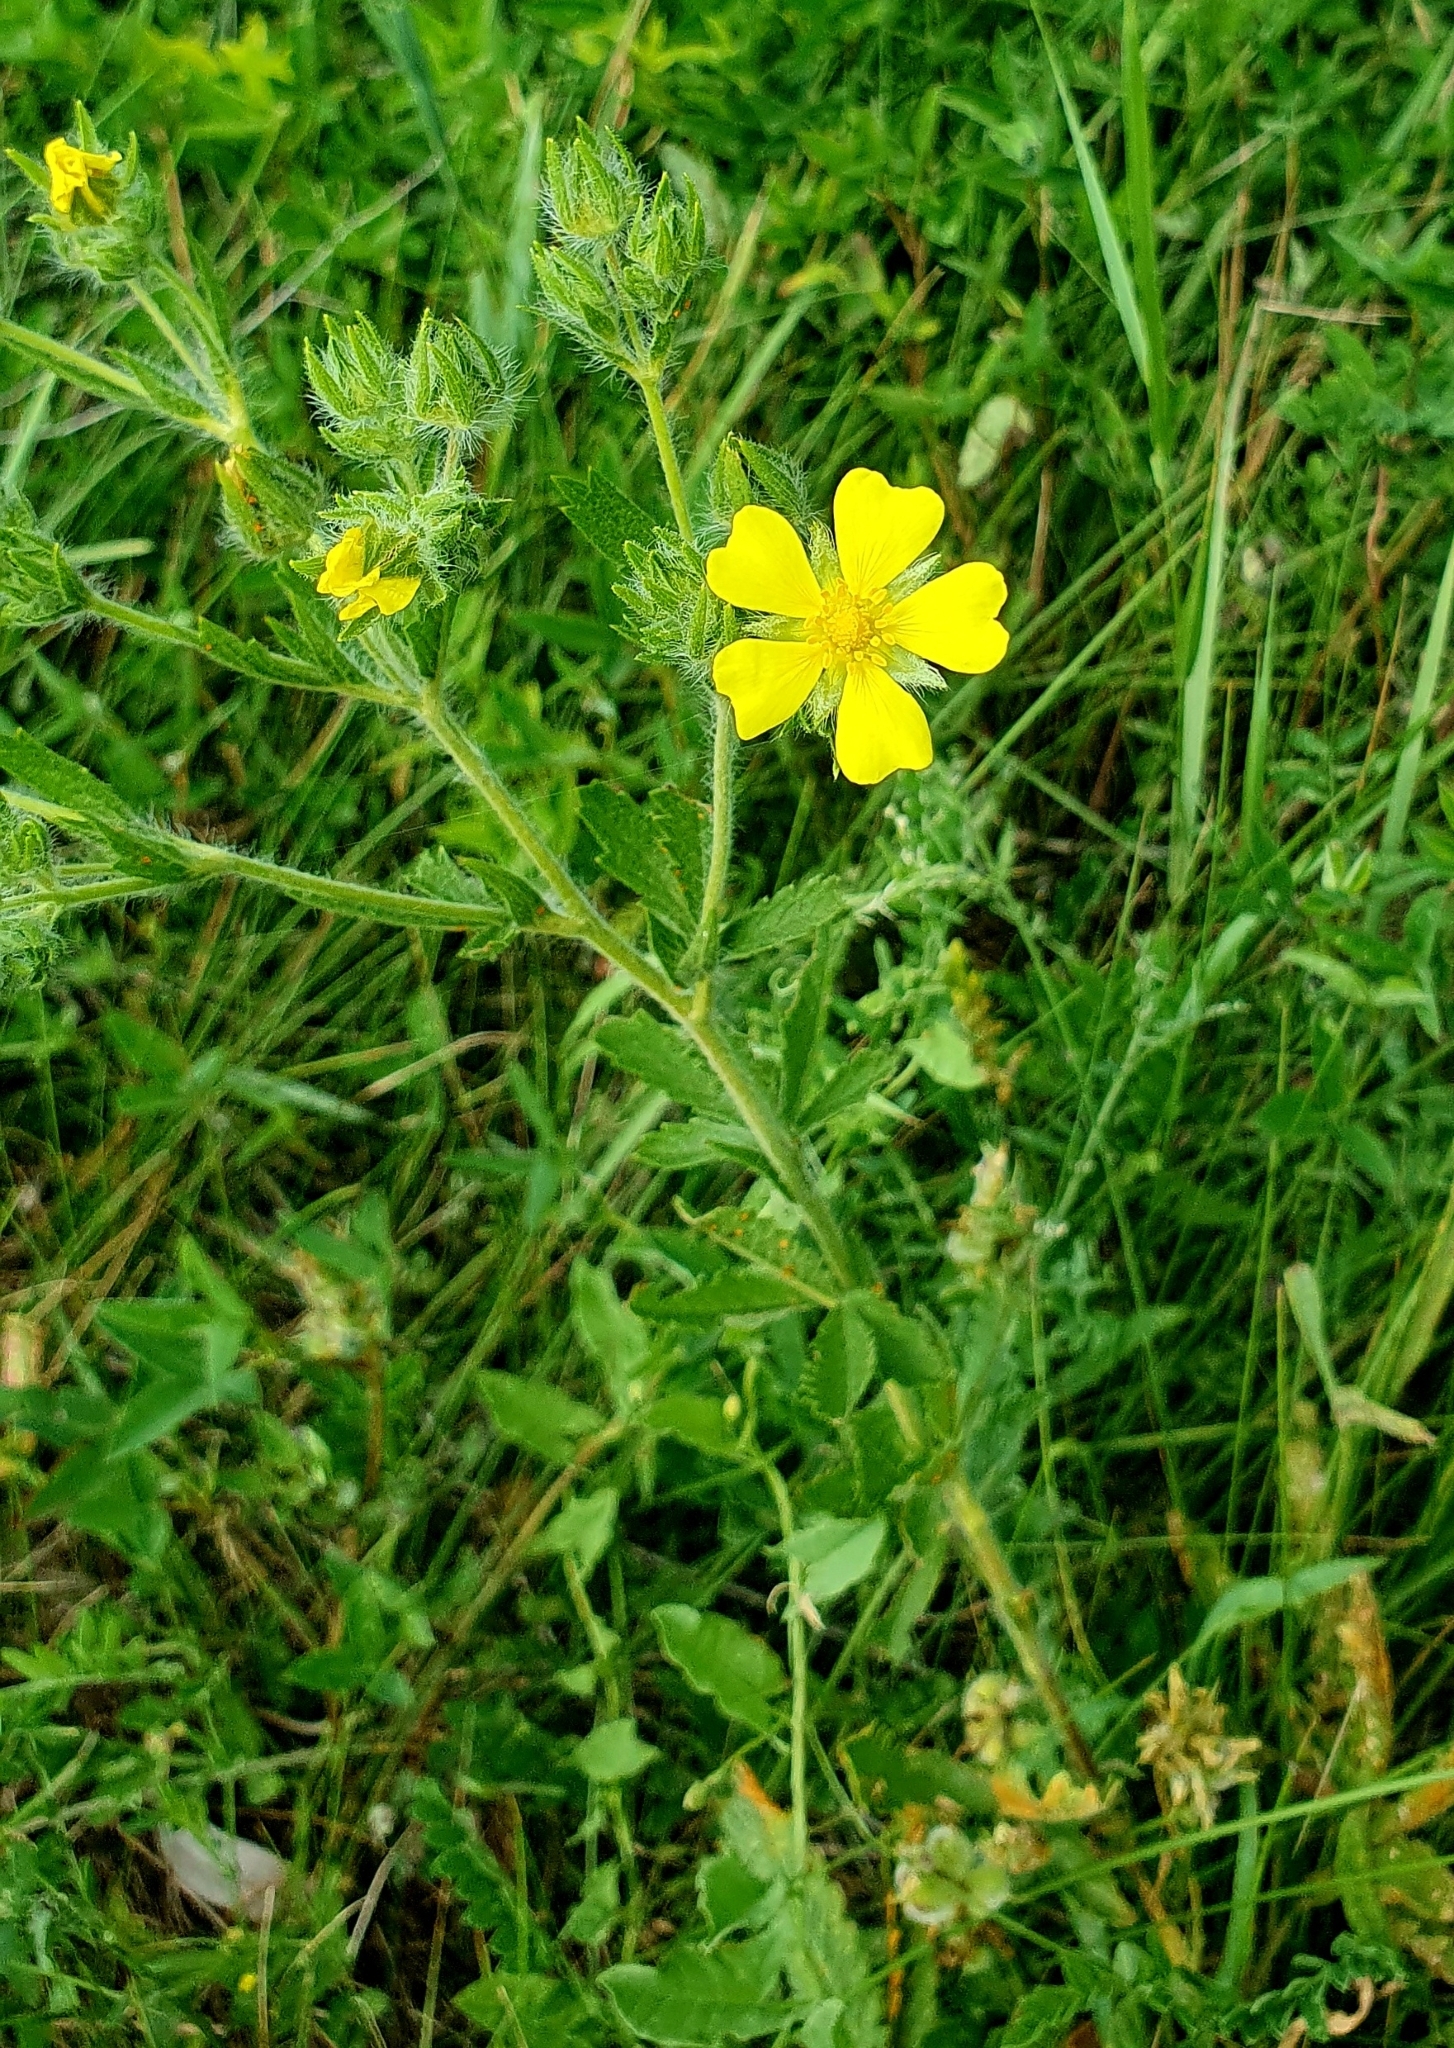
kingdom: Plantae
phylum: Tracheophyta
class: Magnoliopsida
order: Rosales
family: Rosaceae
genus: Potentilla
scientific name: Potentilla recta
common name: Sulphur cinquefoil
